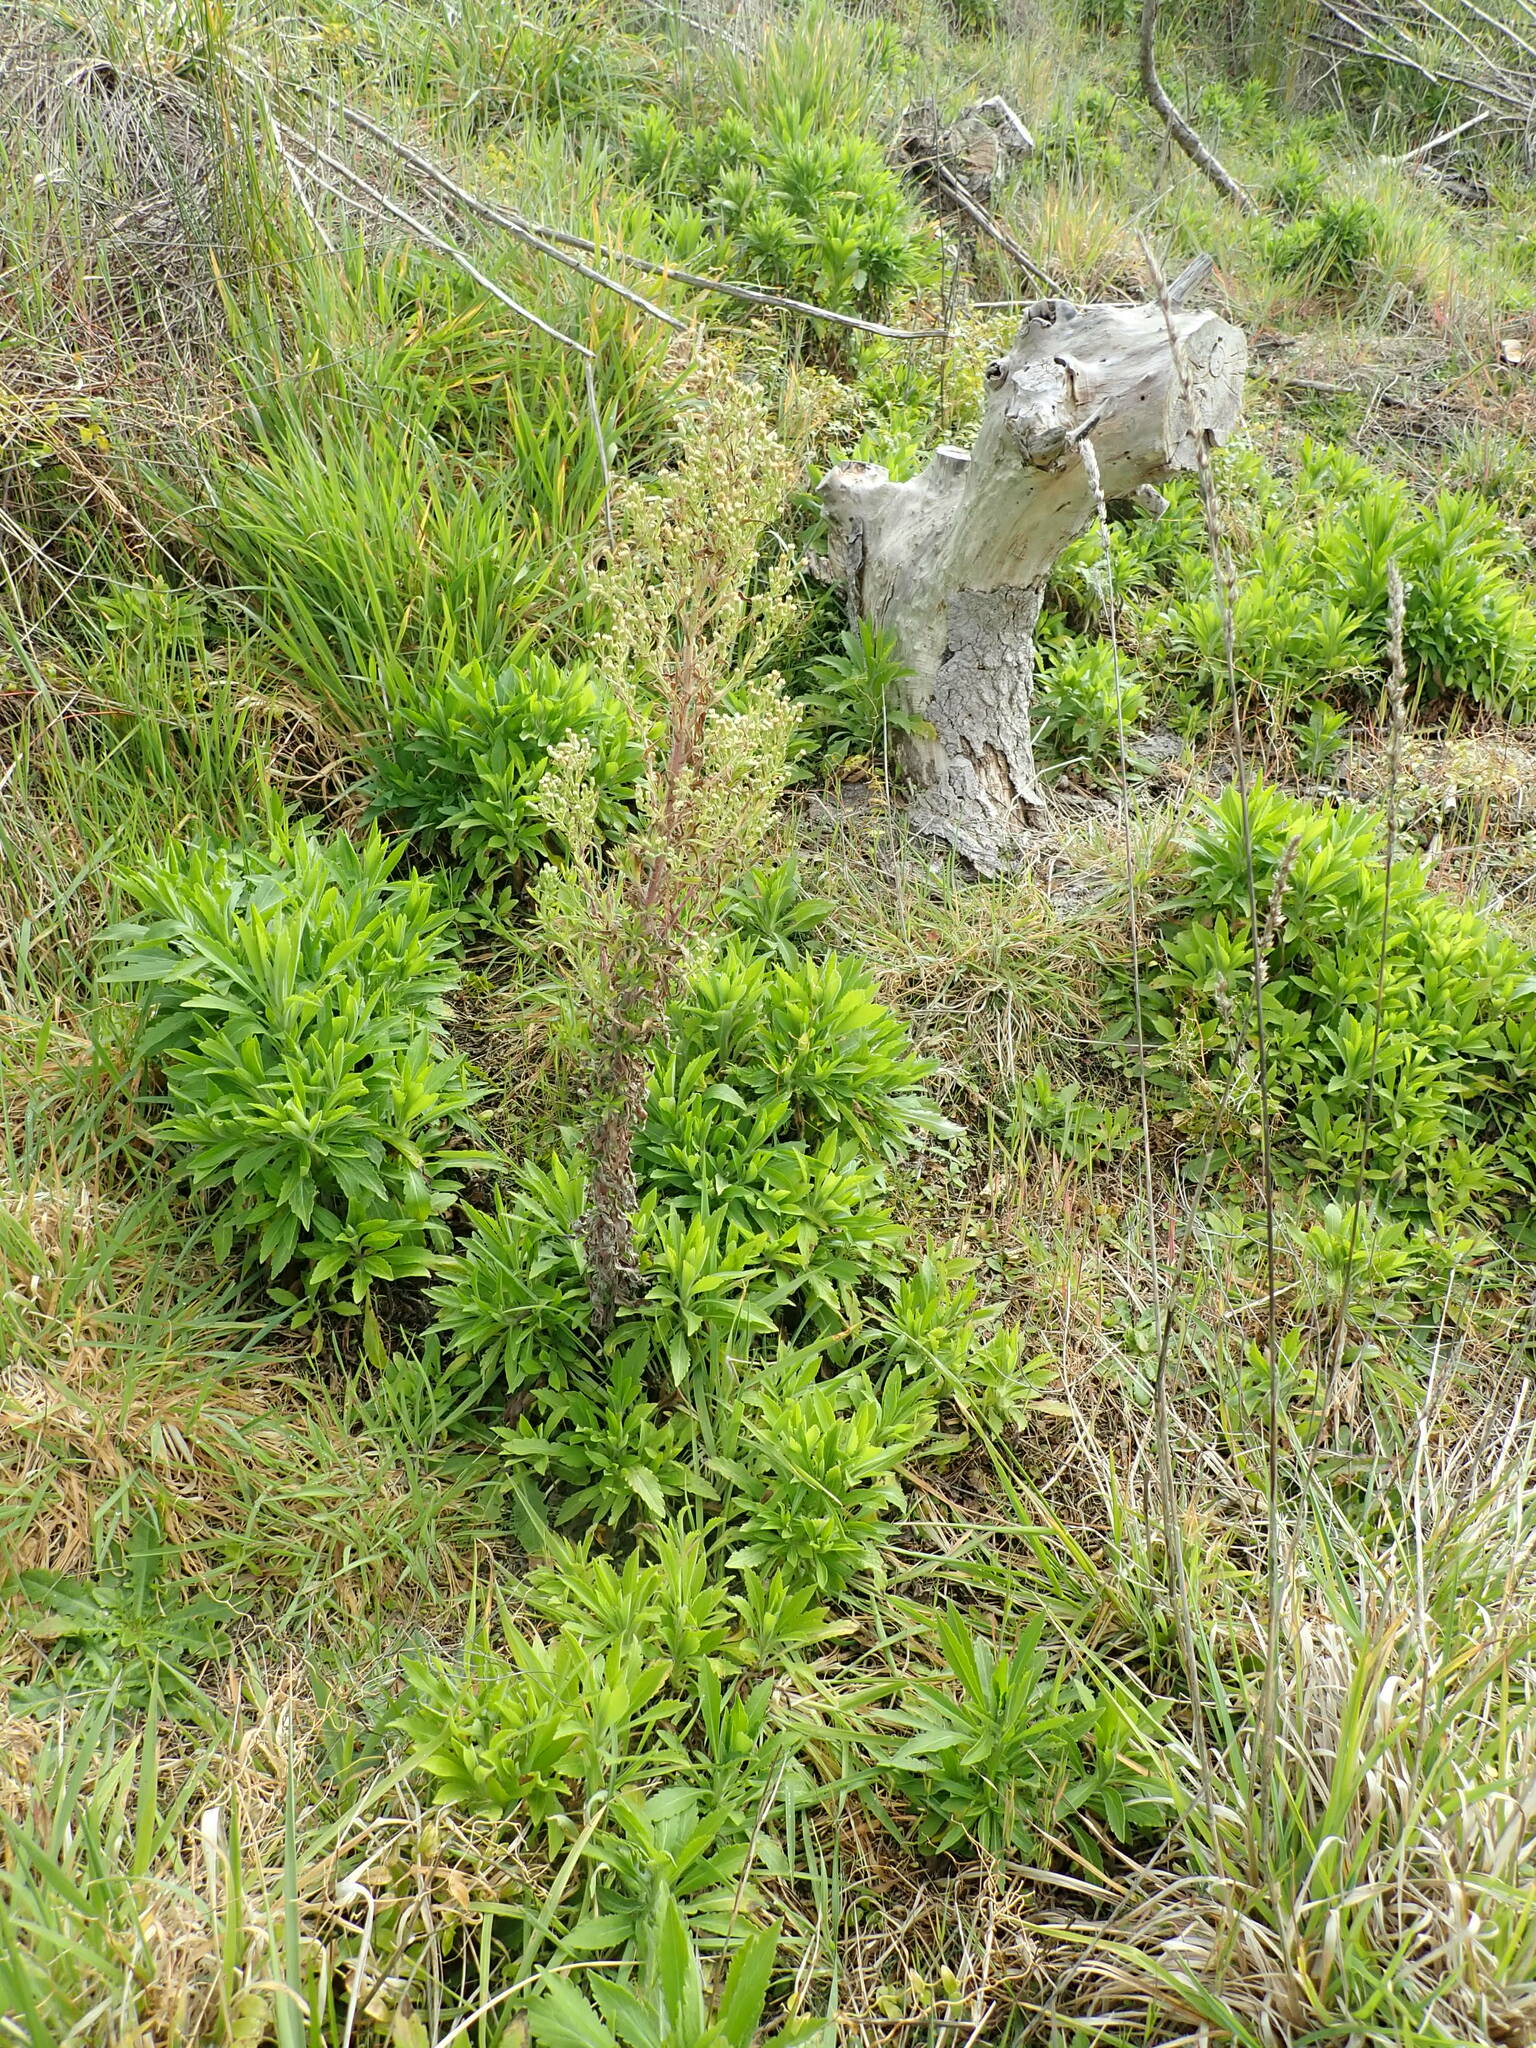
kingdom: Plantae
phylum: Tracheophyta
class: Magnoliopsida
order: Asterales
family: Asteraceae
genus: Erigeron
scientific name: Erigeron sumatrensis
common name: Daisy
